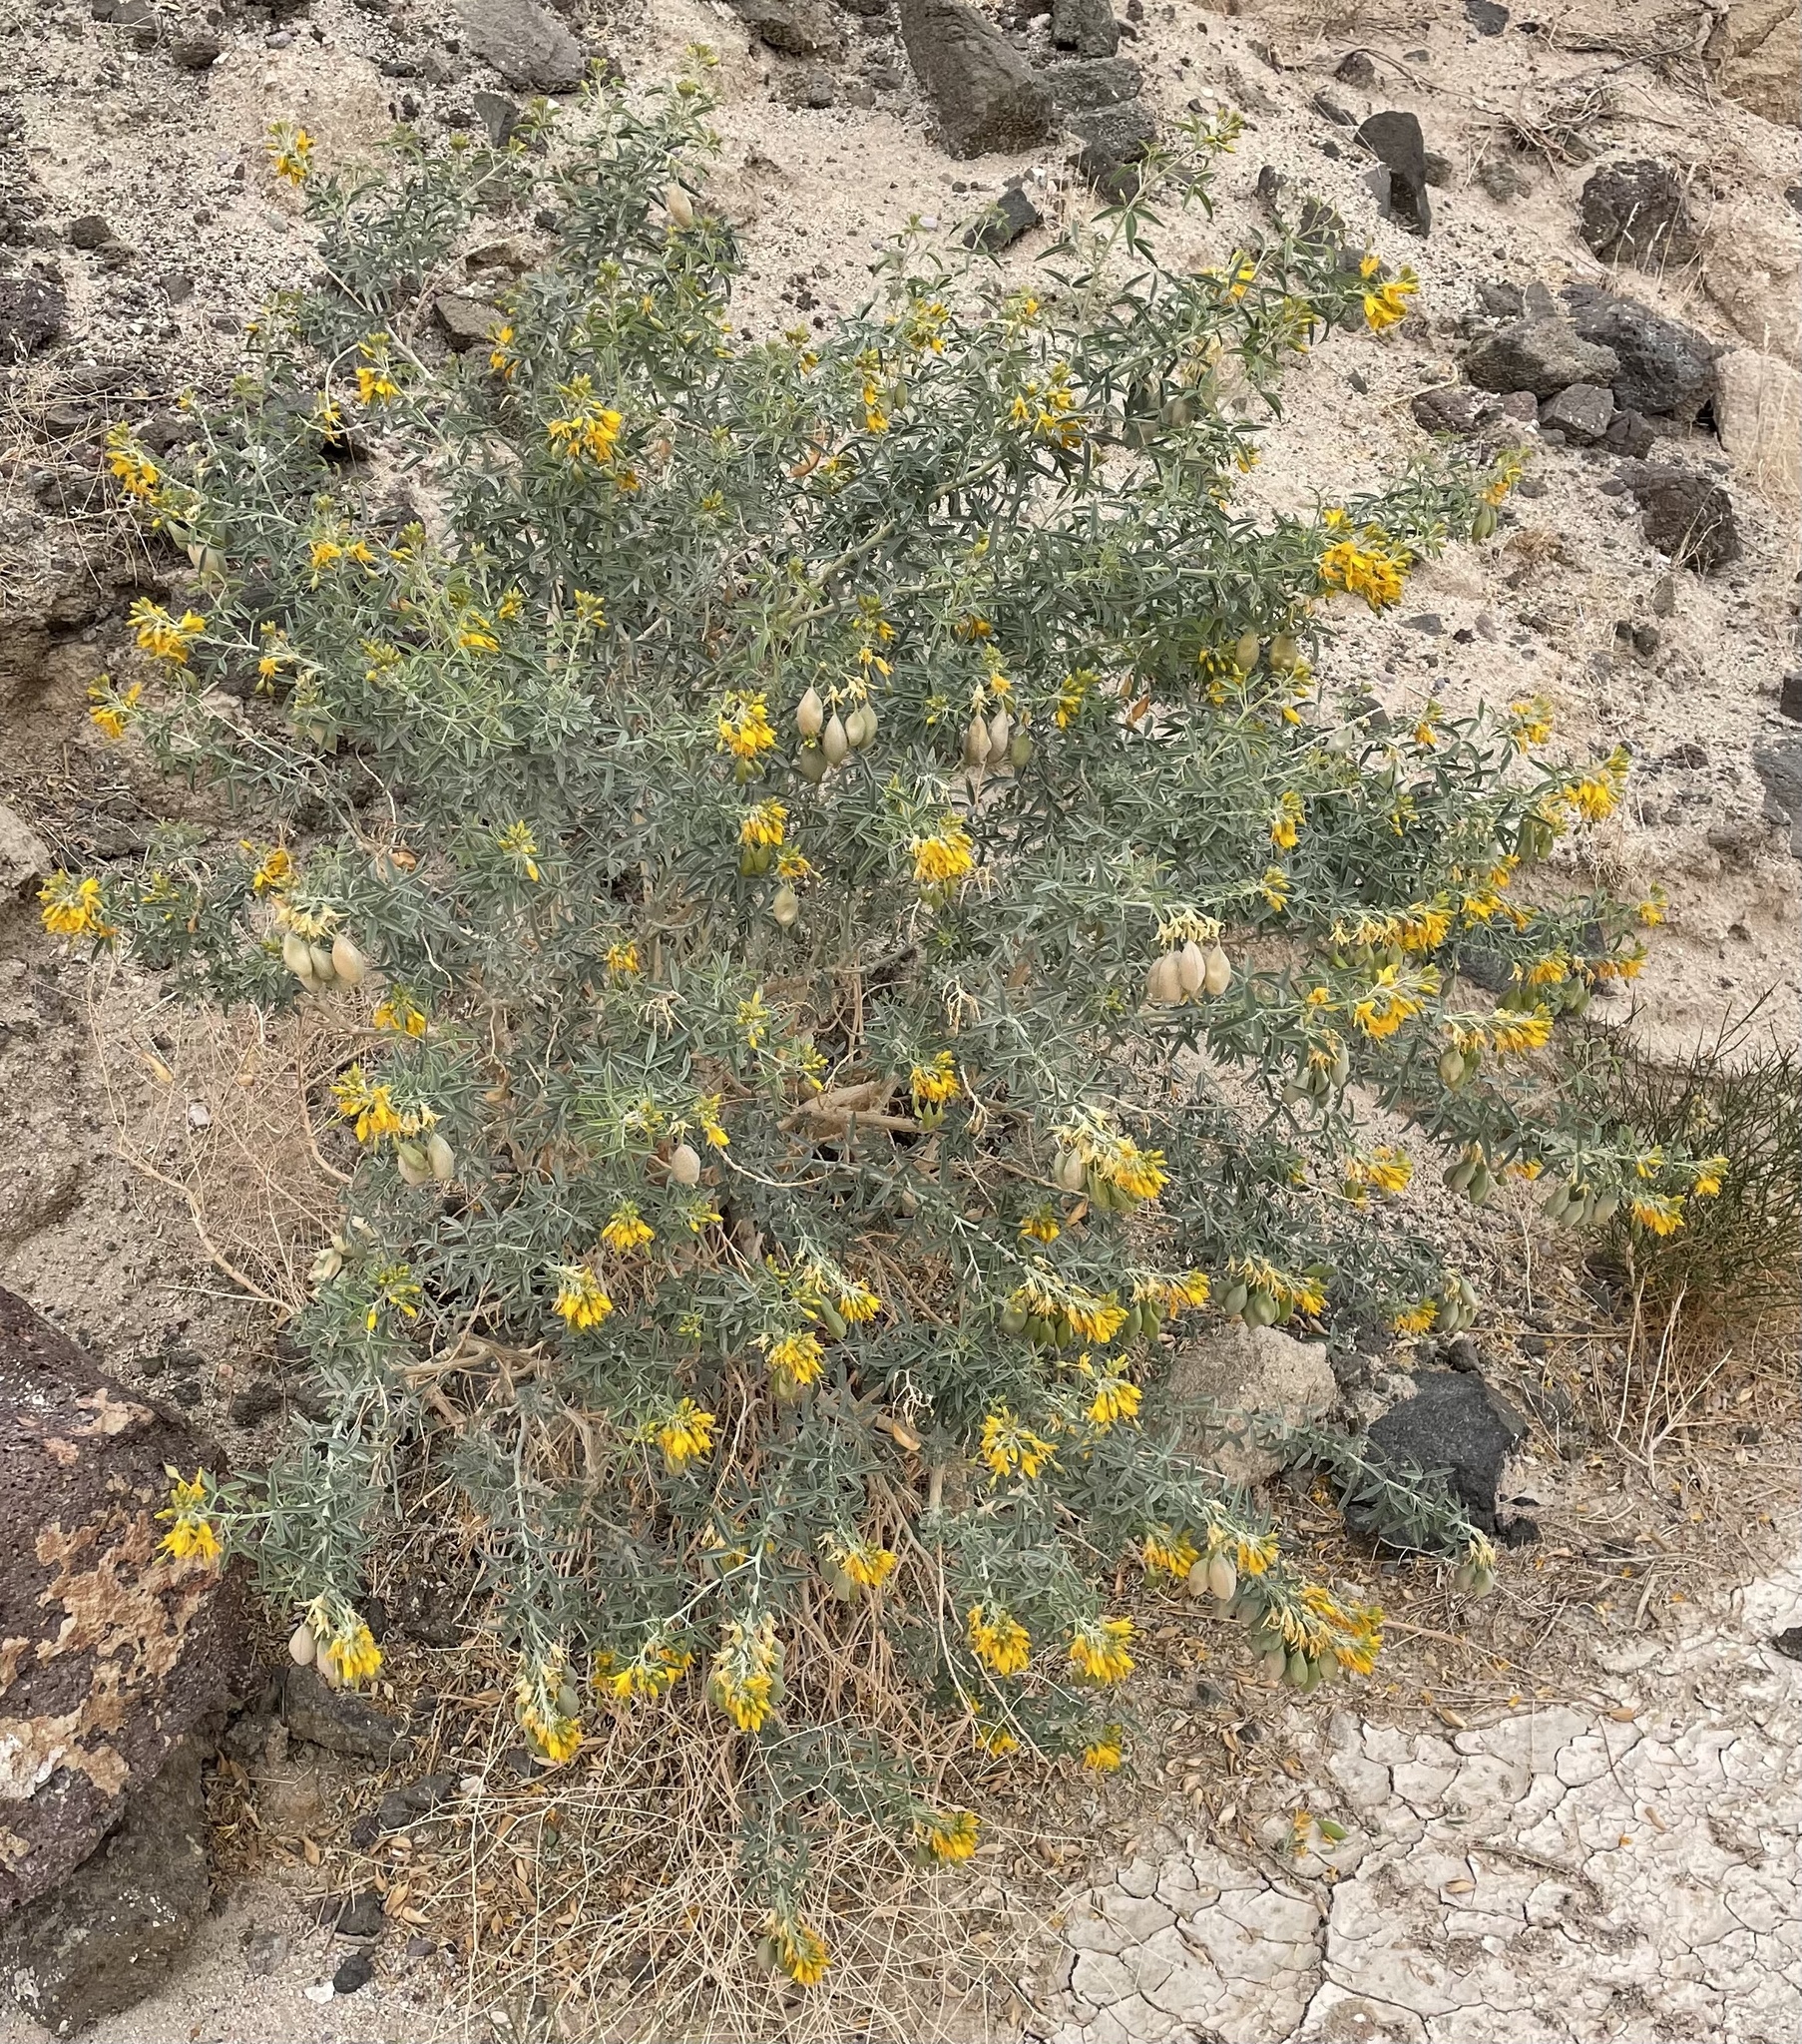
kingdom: Plantae
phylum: Tracheophyta
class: Magnoliopsida
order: Brassicales
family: Cleomaceae
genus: Cleomella
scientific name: Cleomella arborea
